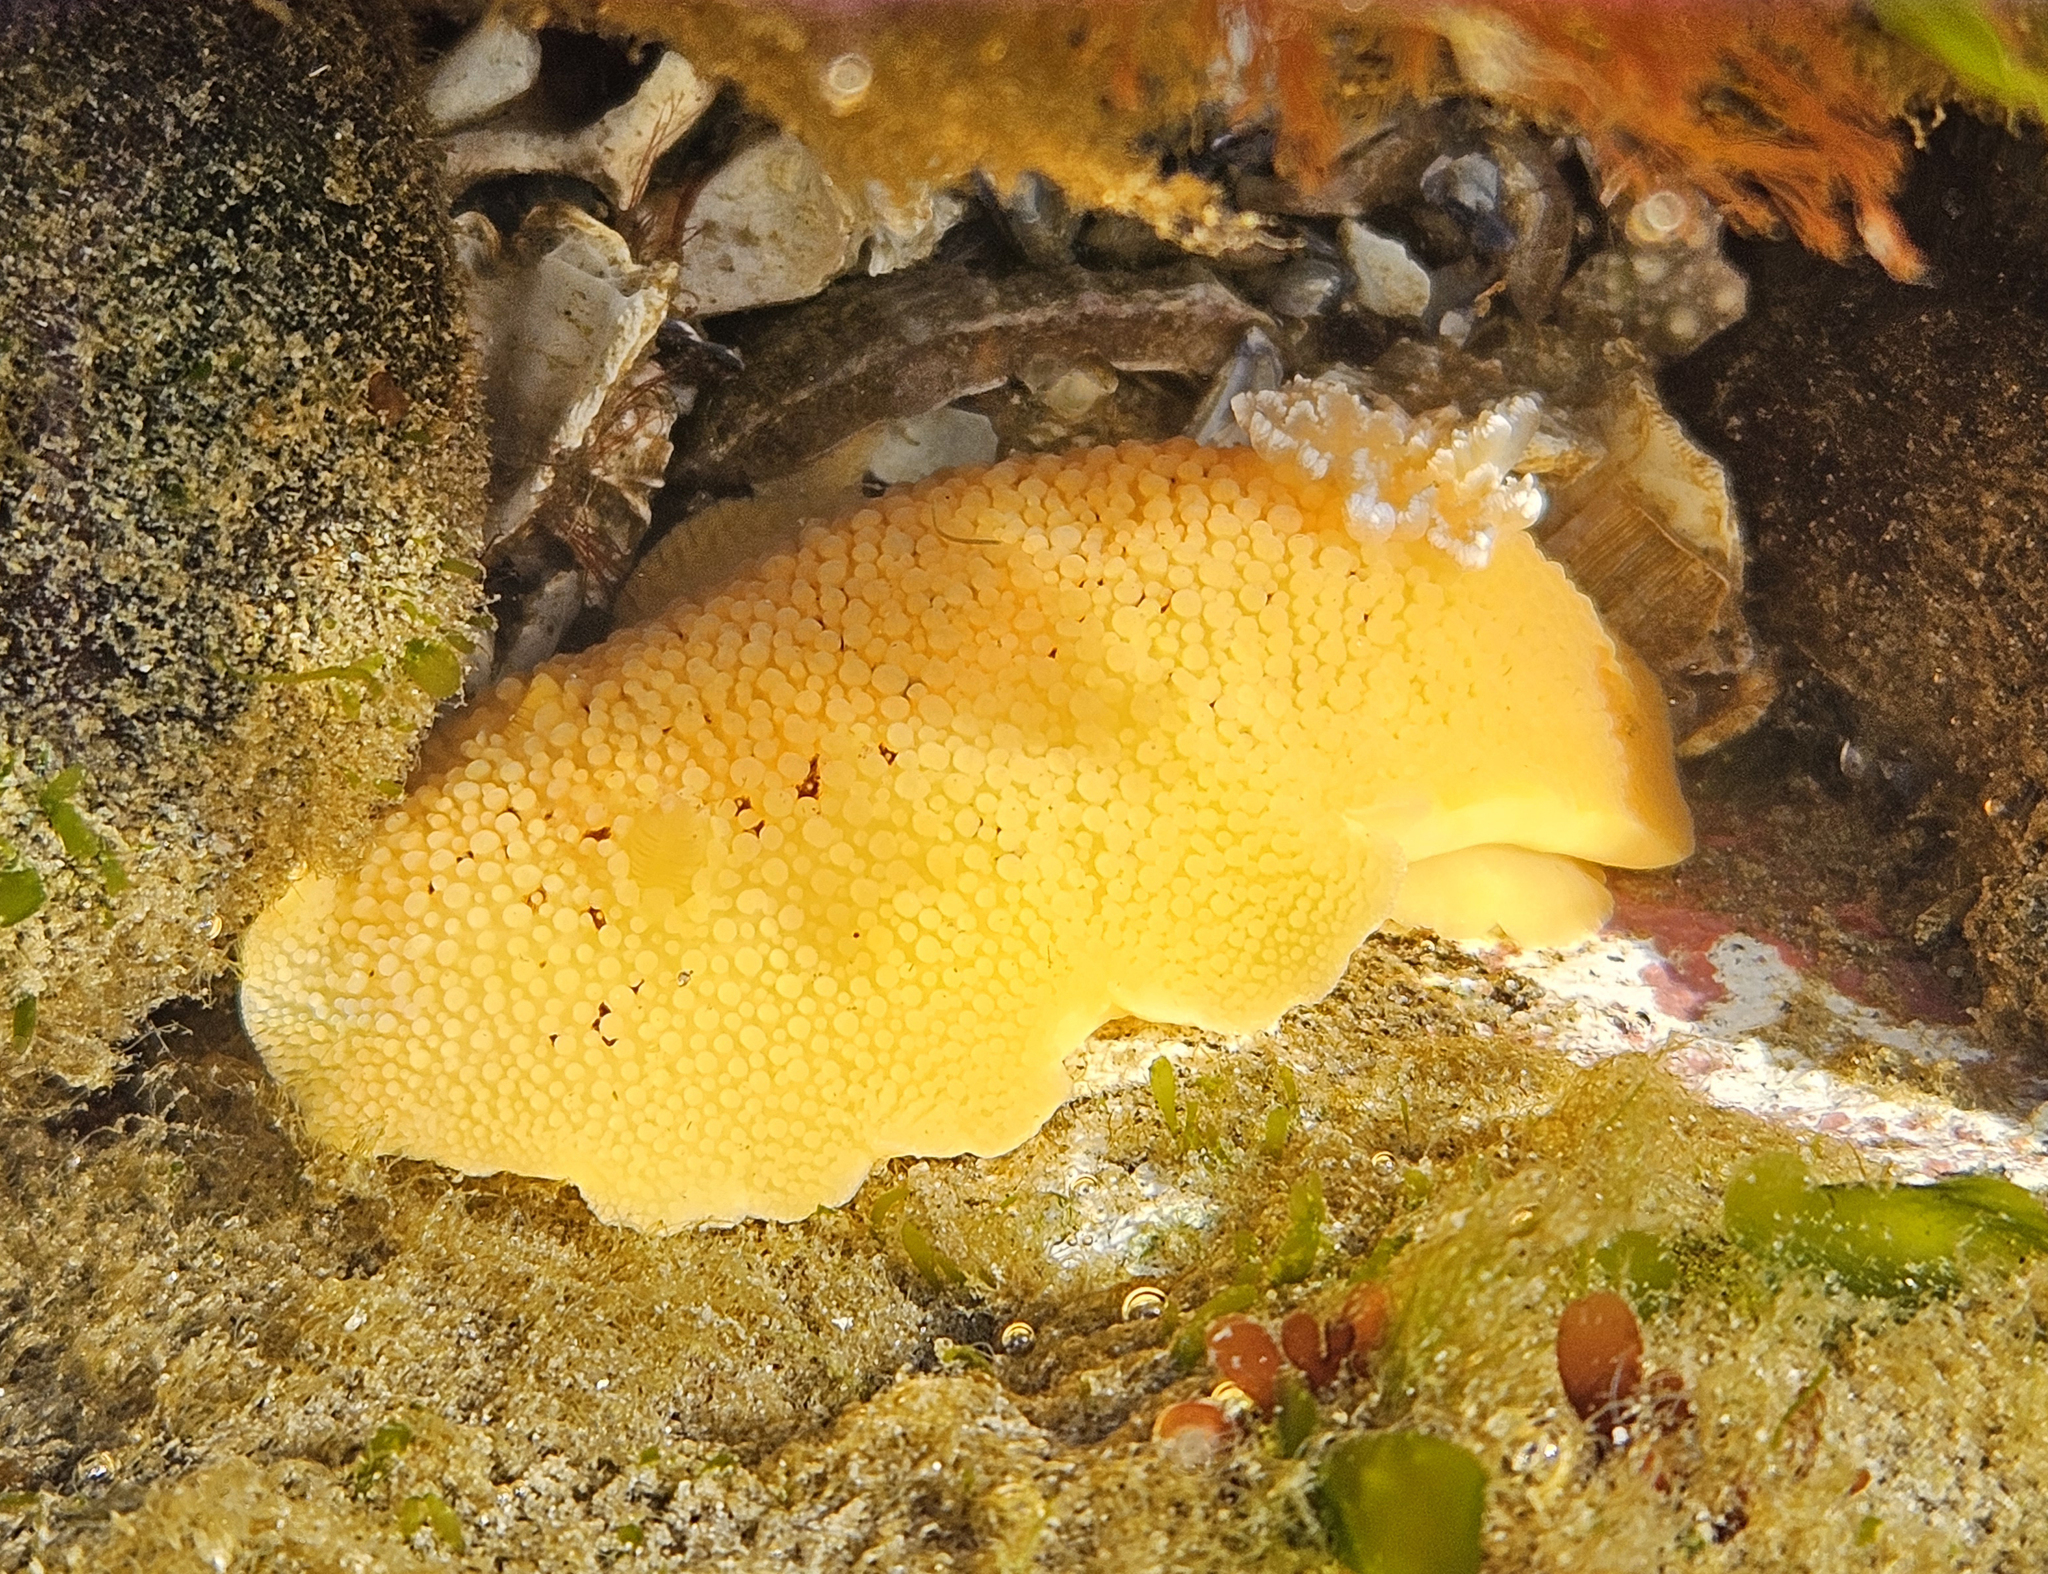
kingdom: Animalia
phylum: Mollusca
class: Gastropoda
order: Nudibranchia
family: Discodorididae
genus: Peltodoris
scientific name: Peltodoris nobilis
